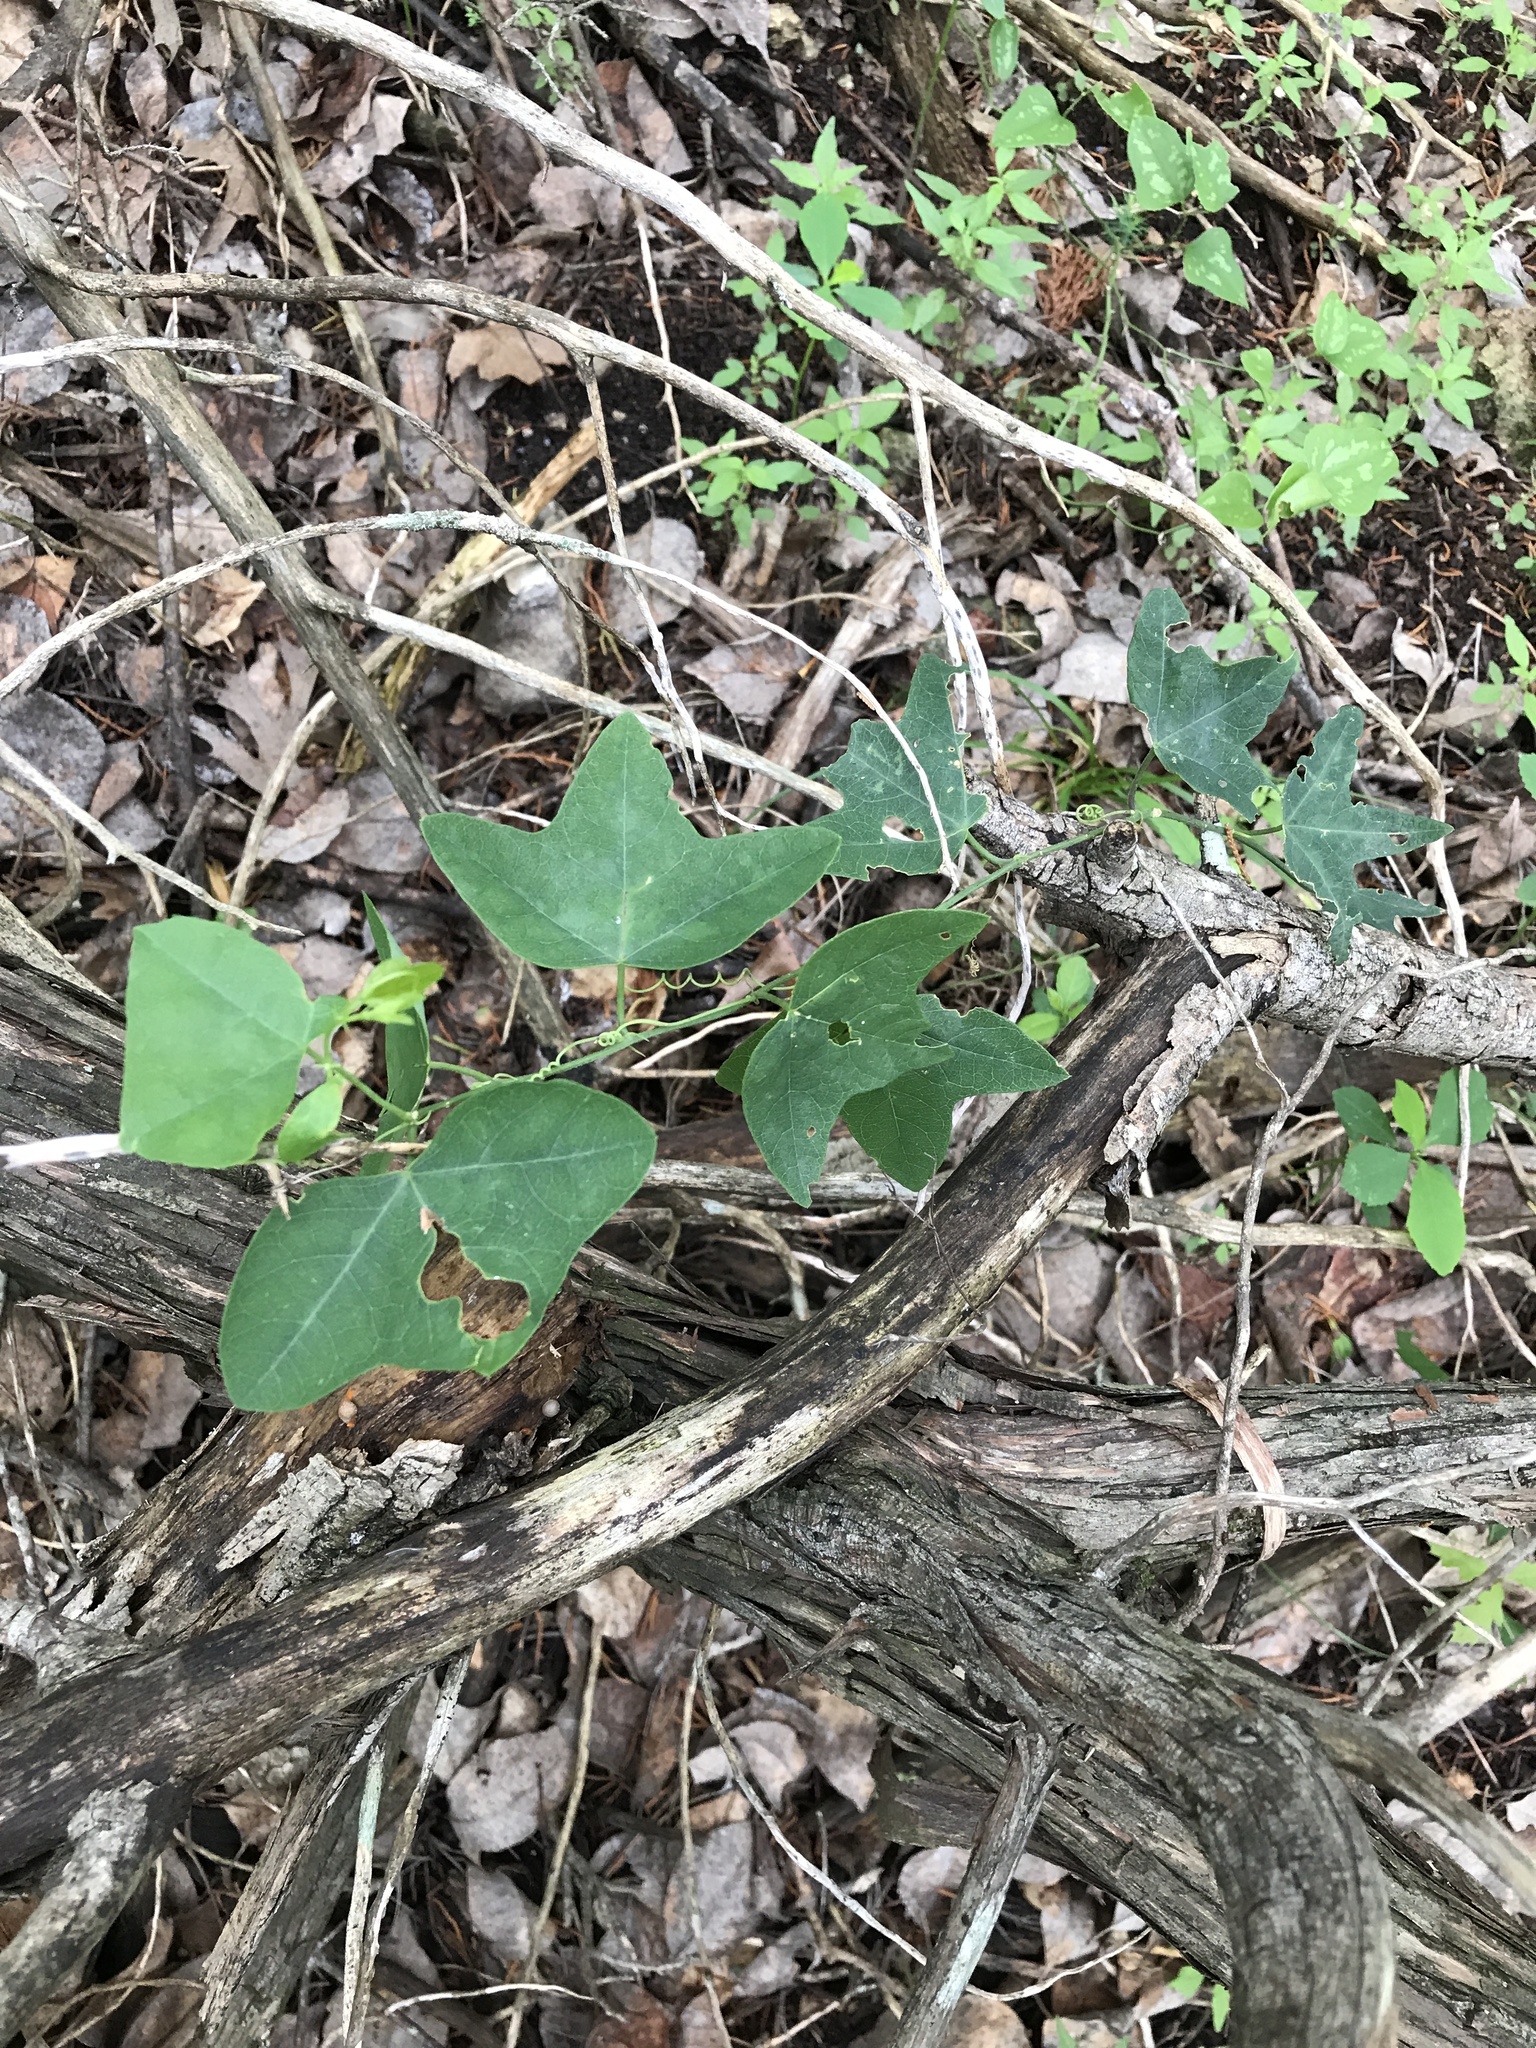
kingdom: Plantae
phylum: Tracheophyta
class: Magnoliopsida
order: Malpighiales
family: Passifloraceae
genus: Passiflora
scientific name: Passiflora lutea
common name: Yellow passionflower
